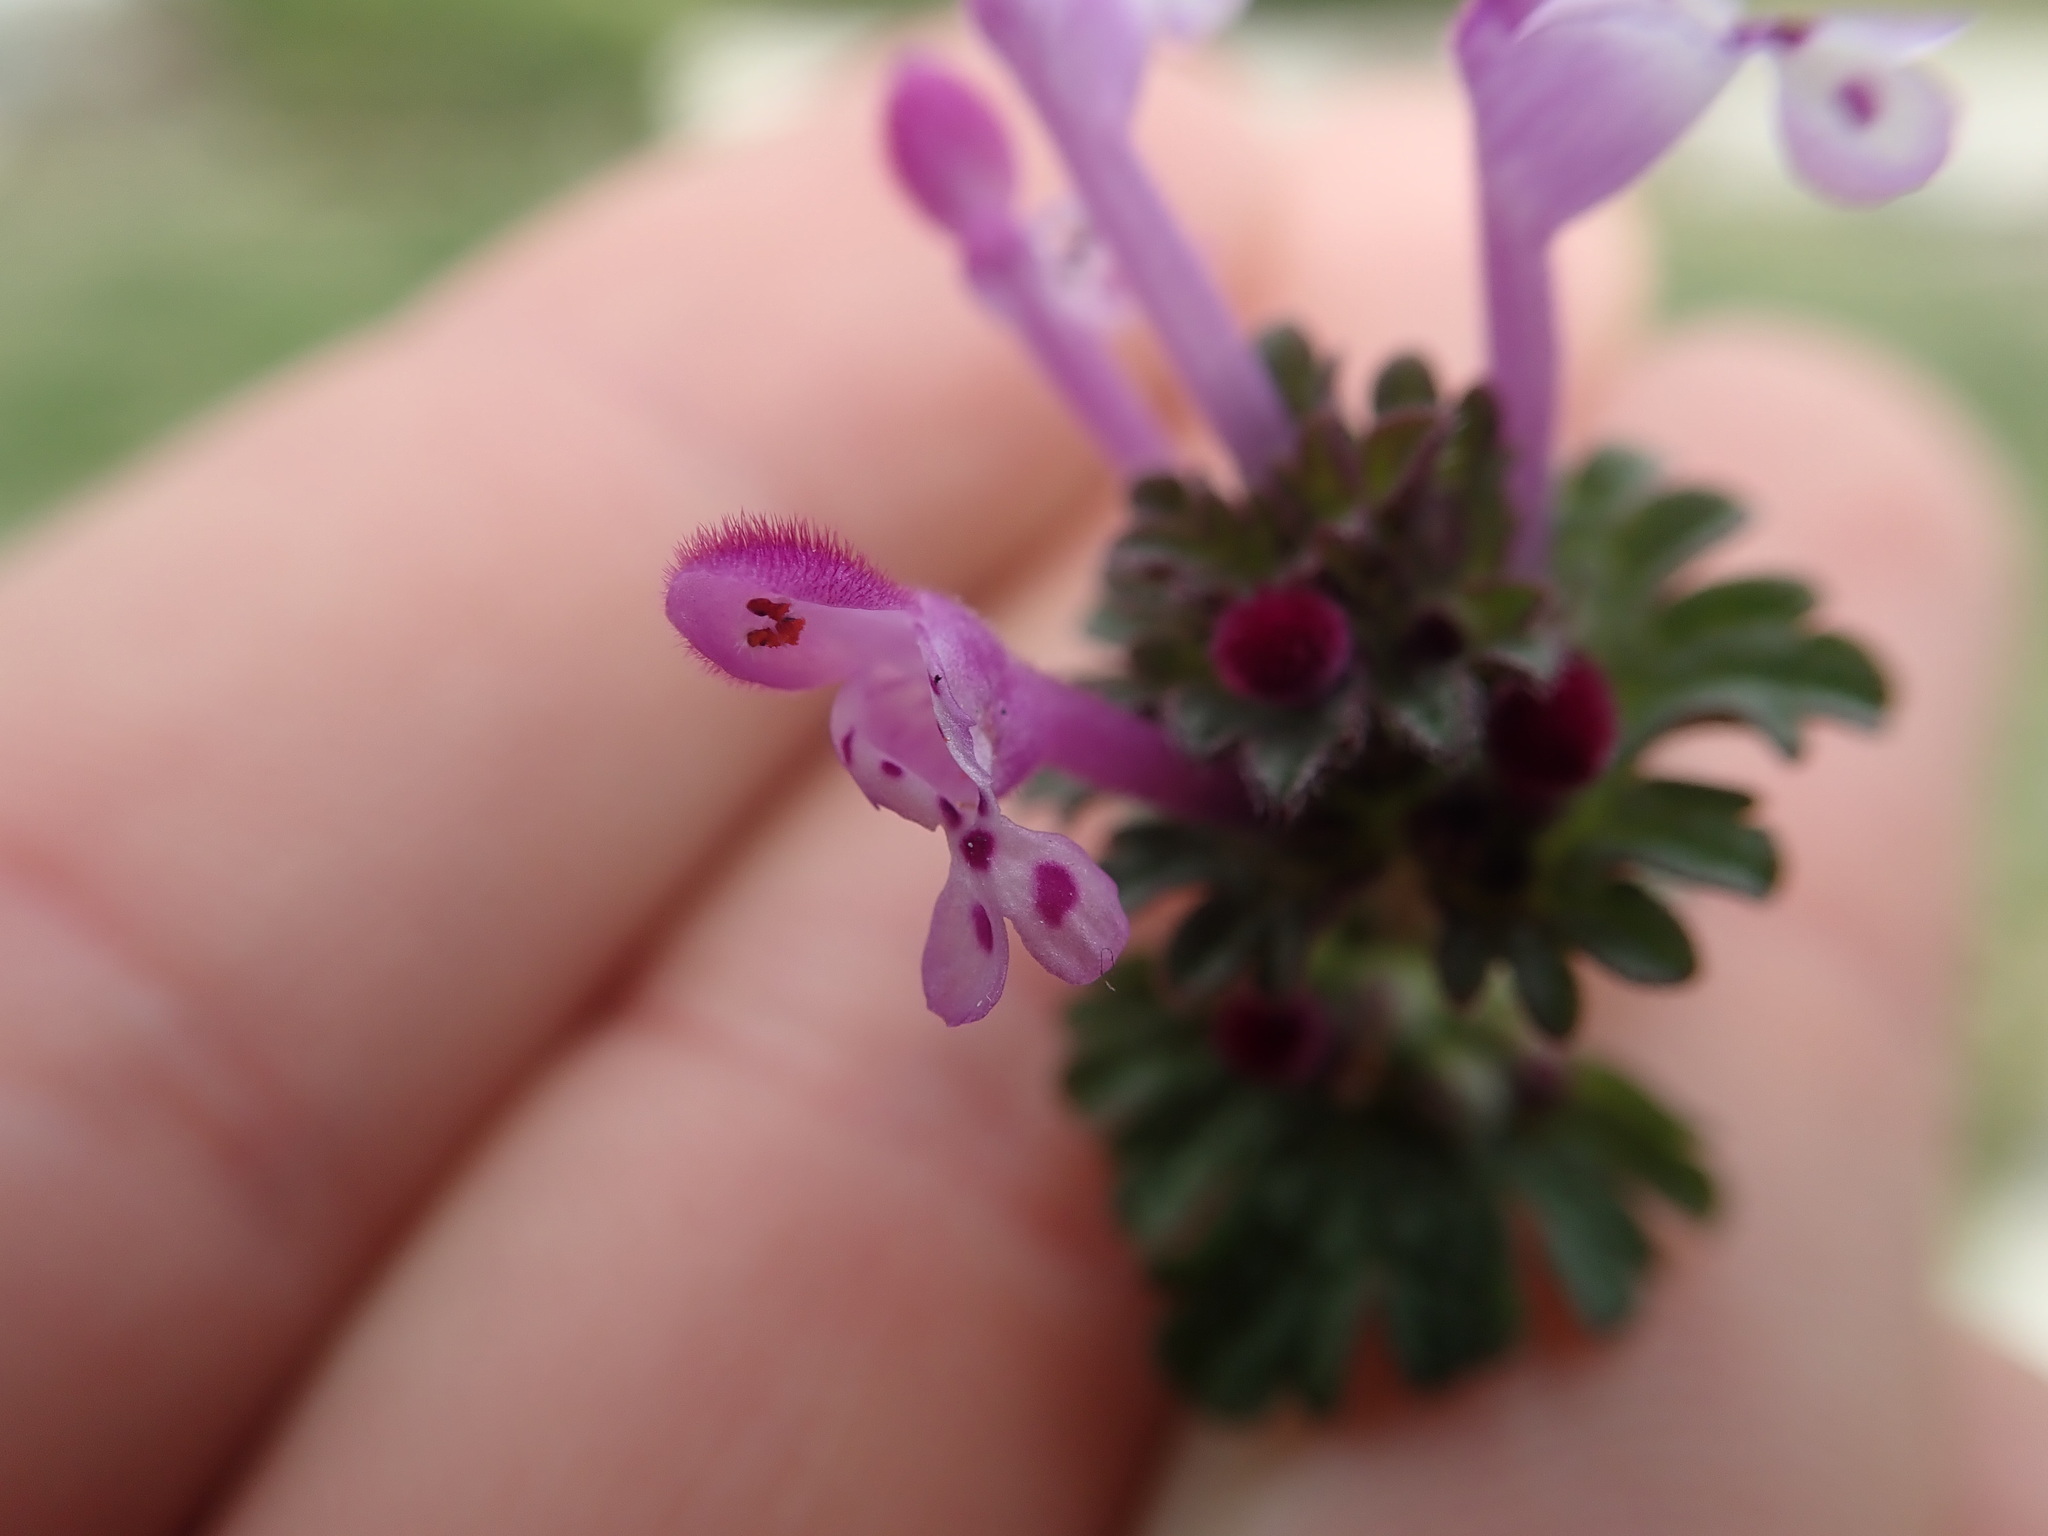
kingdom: Plantae
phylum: Tracheophyta
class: Magnoliopsida
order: Lamiales
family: Lamiaceae
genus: Lamium
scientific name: Lamium amplexicaule
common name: Henbit dead-nettle
